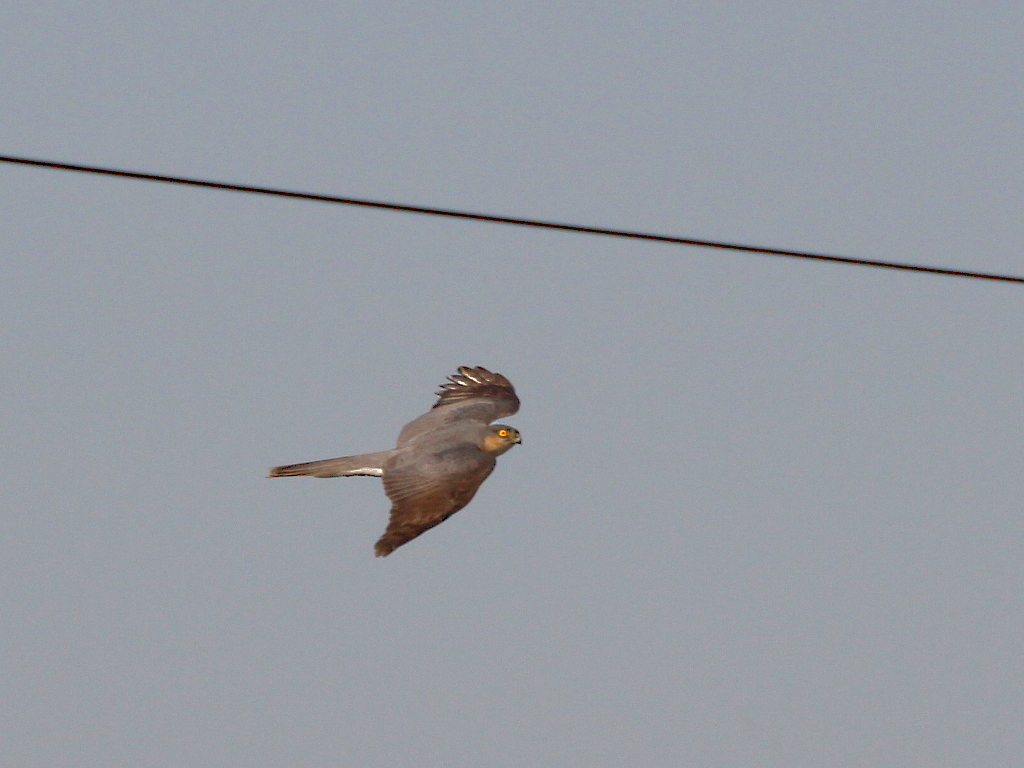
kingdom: Animalia
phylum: Chordata
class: Aves
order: Accipitriformes
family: Accipitridae
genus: Accipiter
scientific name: Accipiter nisus
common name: Eurasian sparrowhawk
